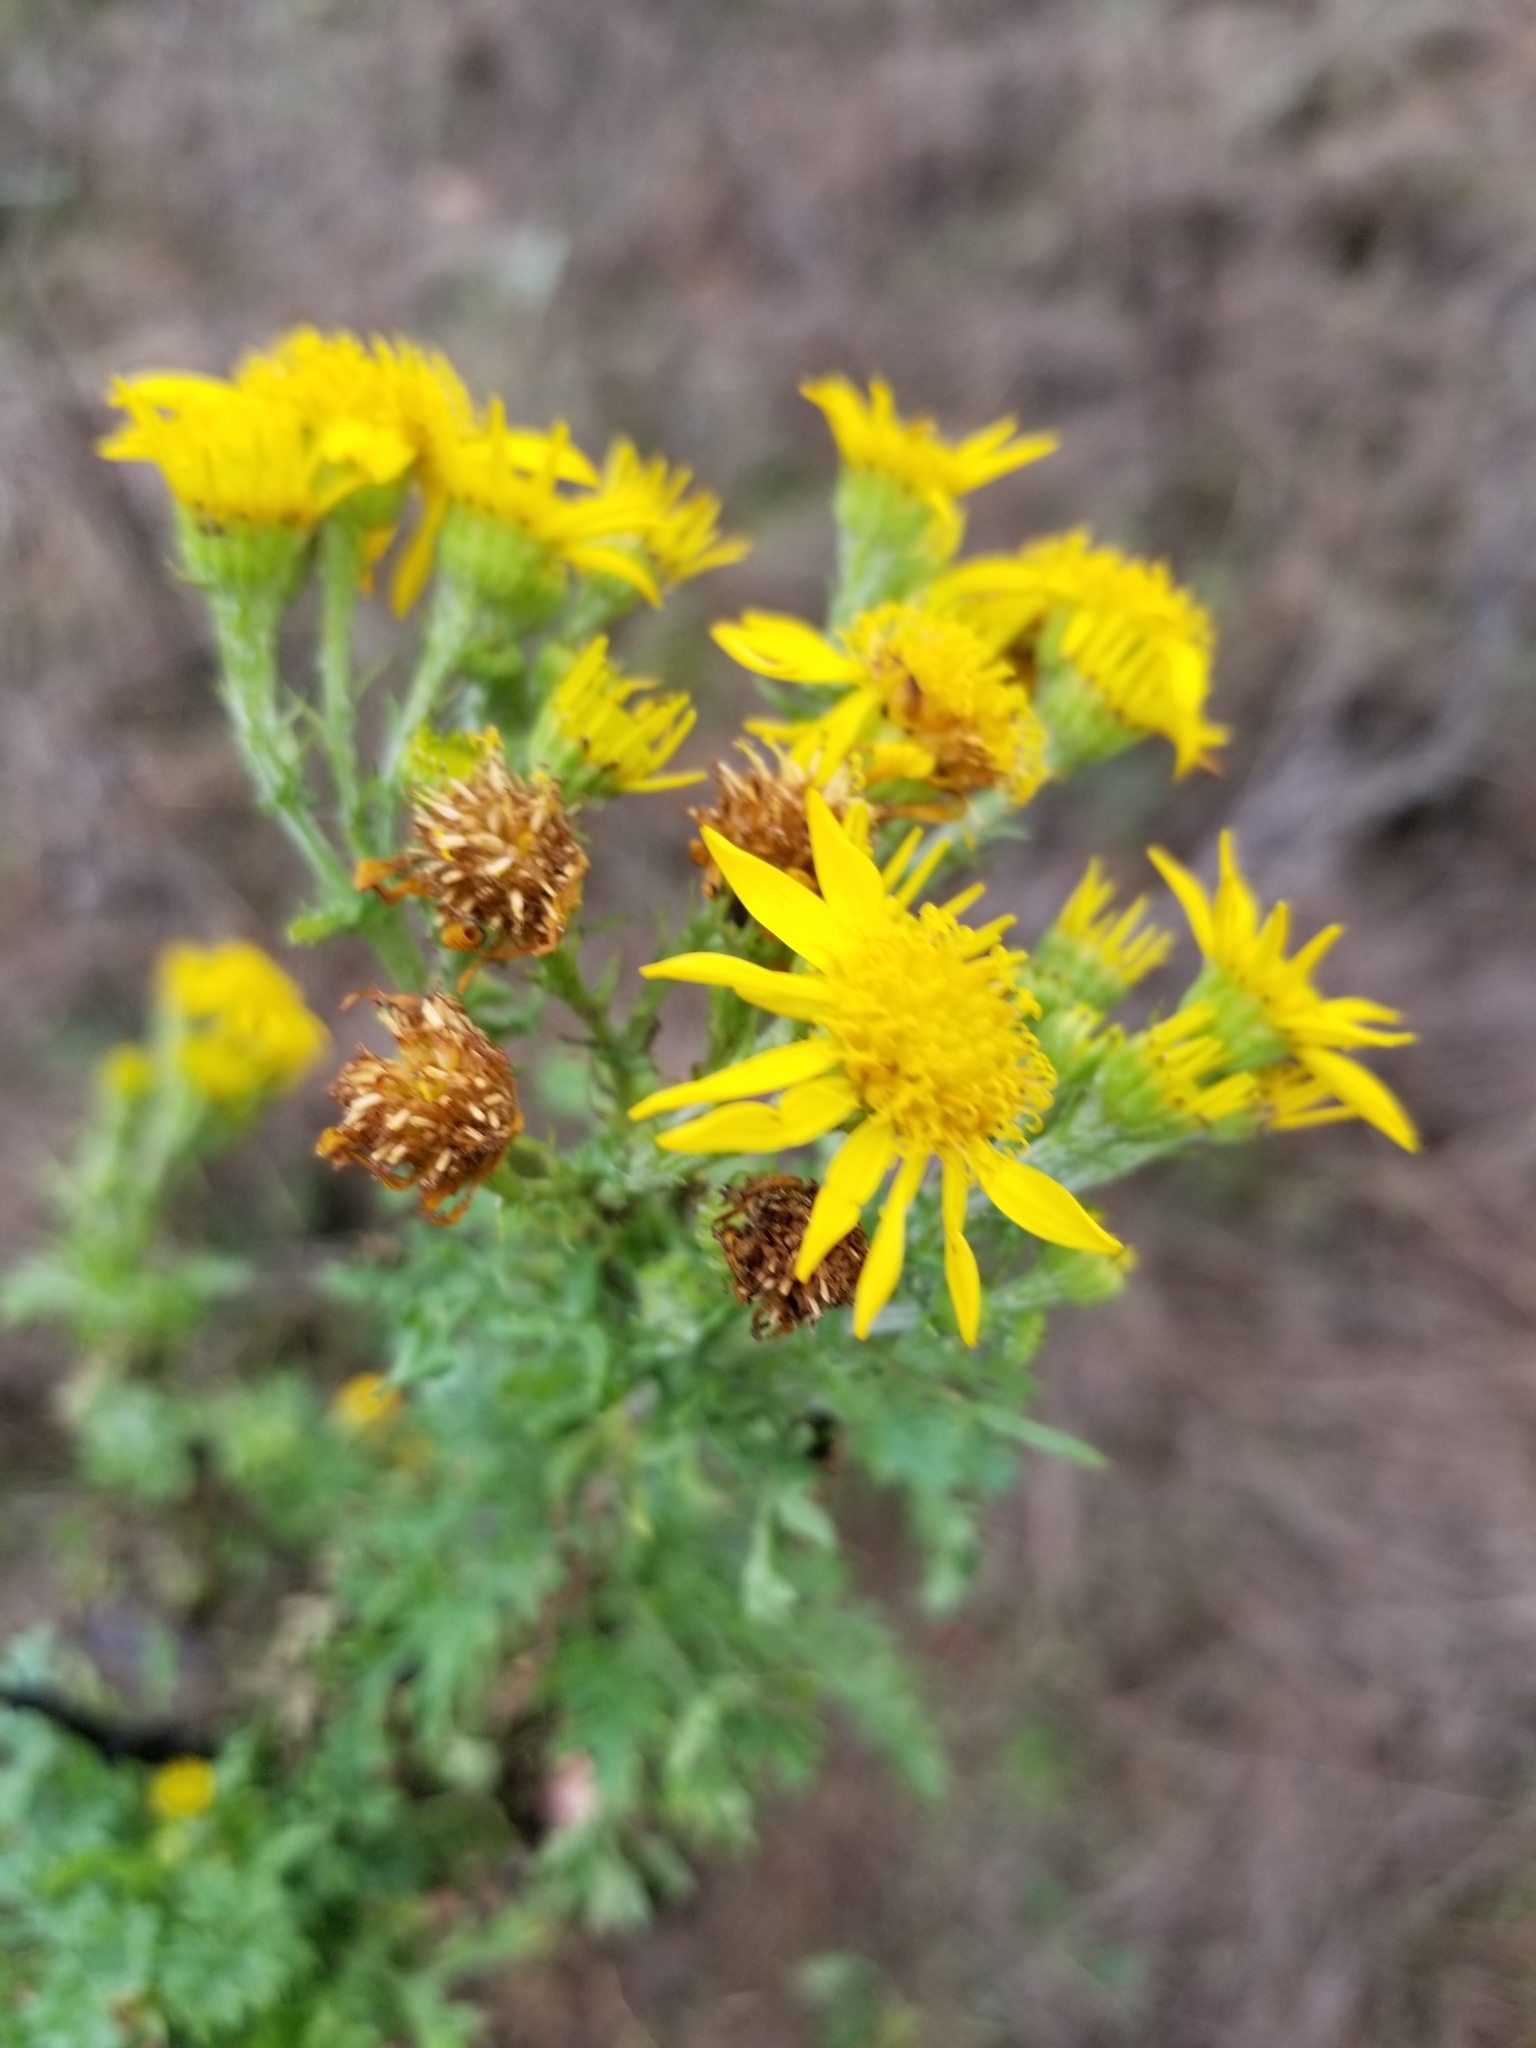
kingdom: Plantae
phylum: Tracheophyta
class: Magnoliopsida
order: Asterales
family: Asteraceae
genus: Jacobaea
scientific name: Jacobaea vulgaris
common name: Stinking willie
